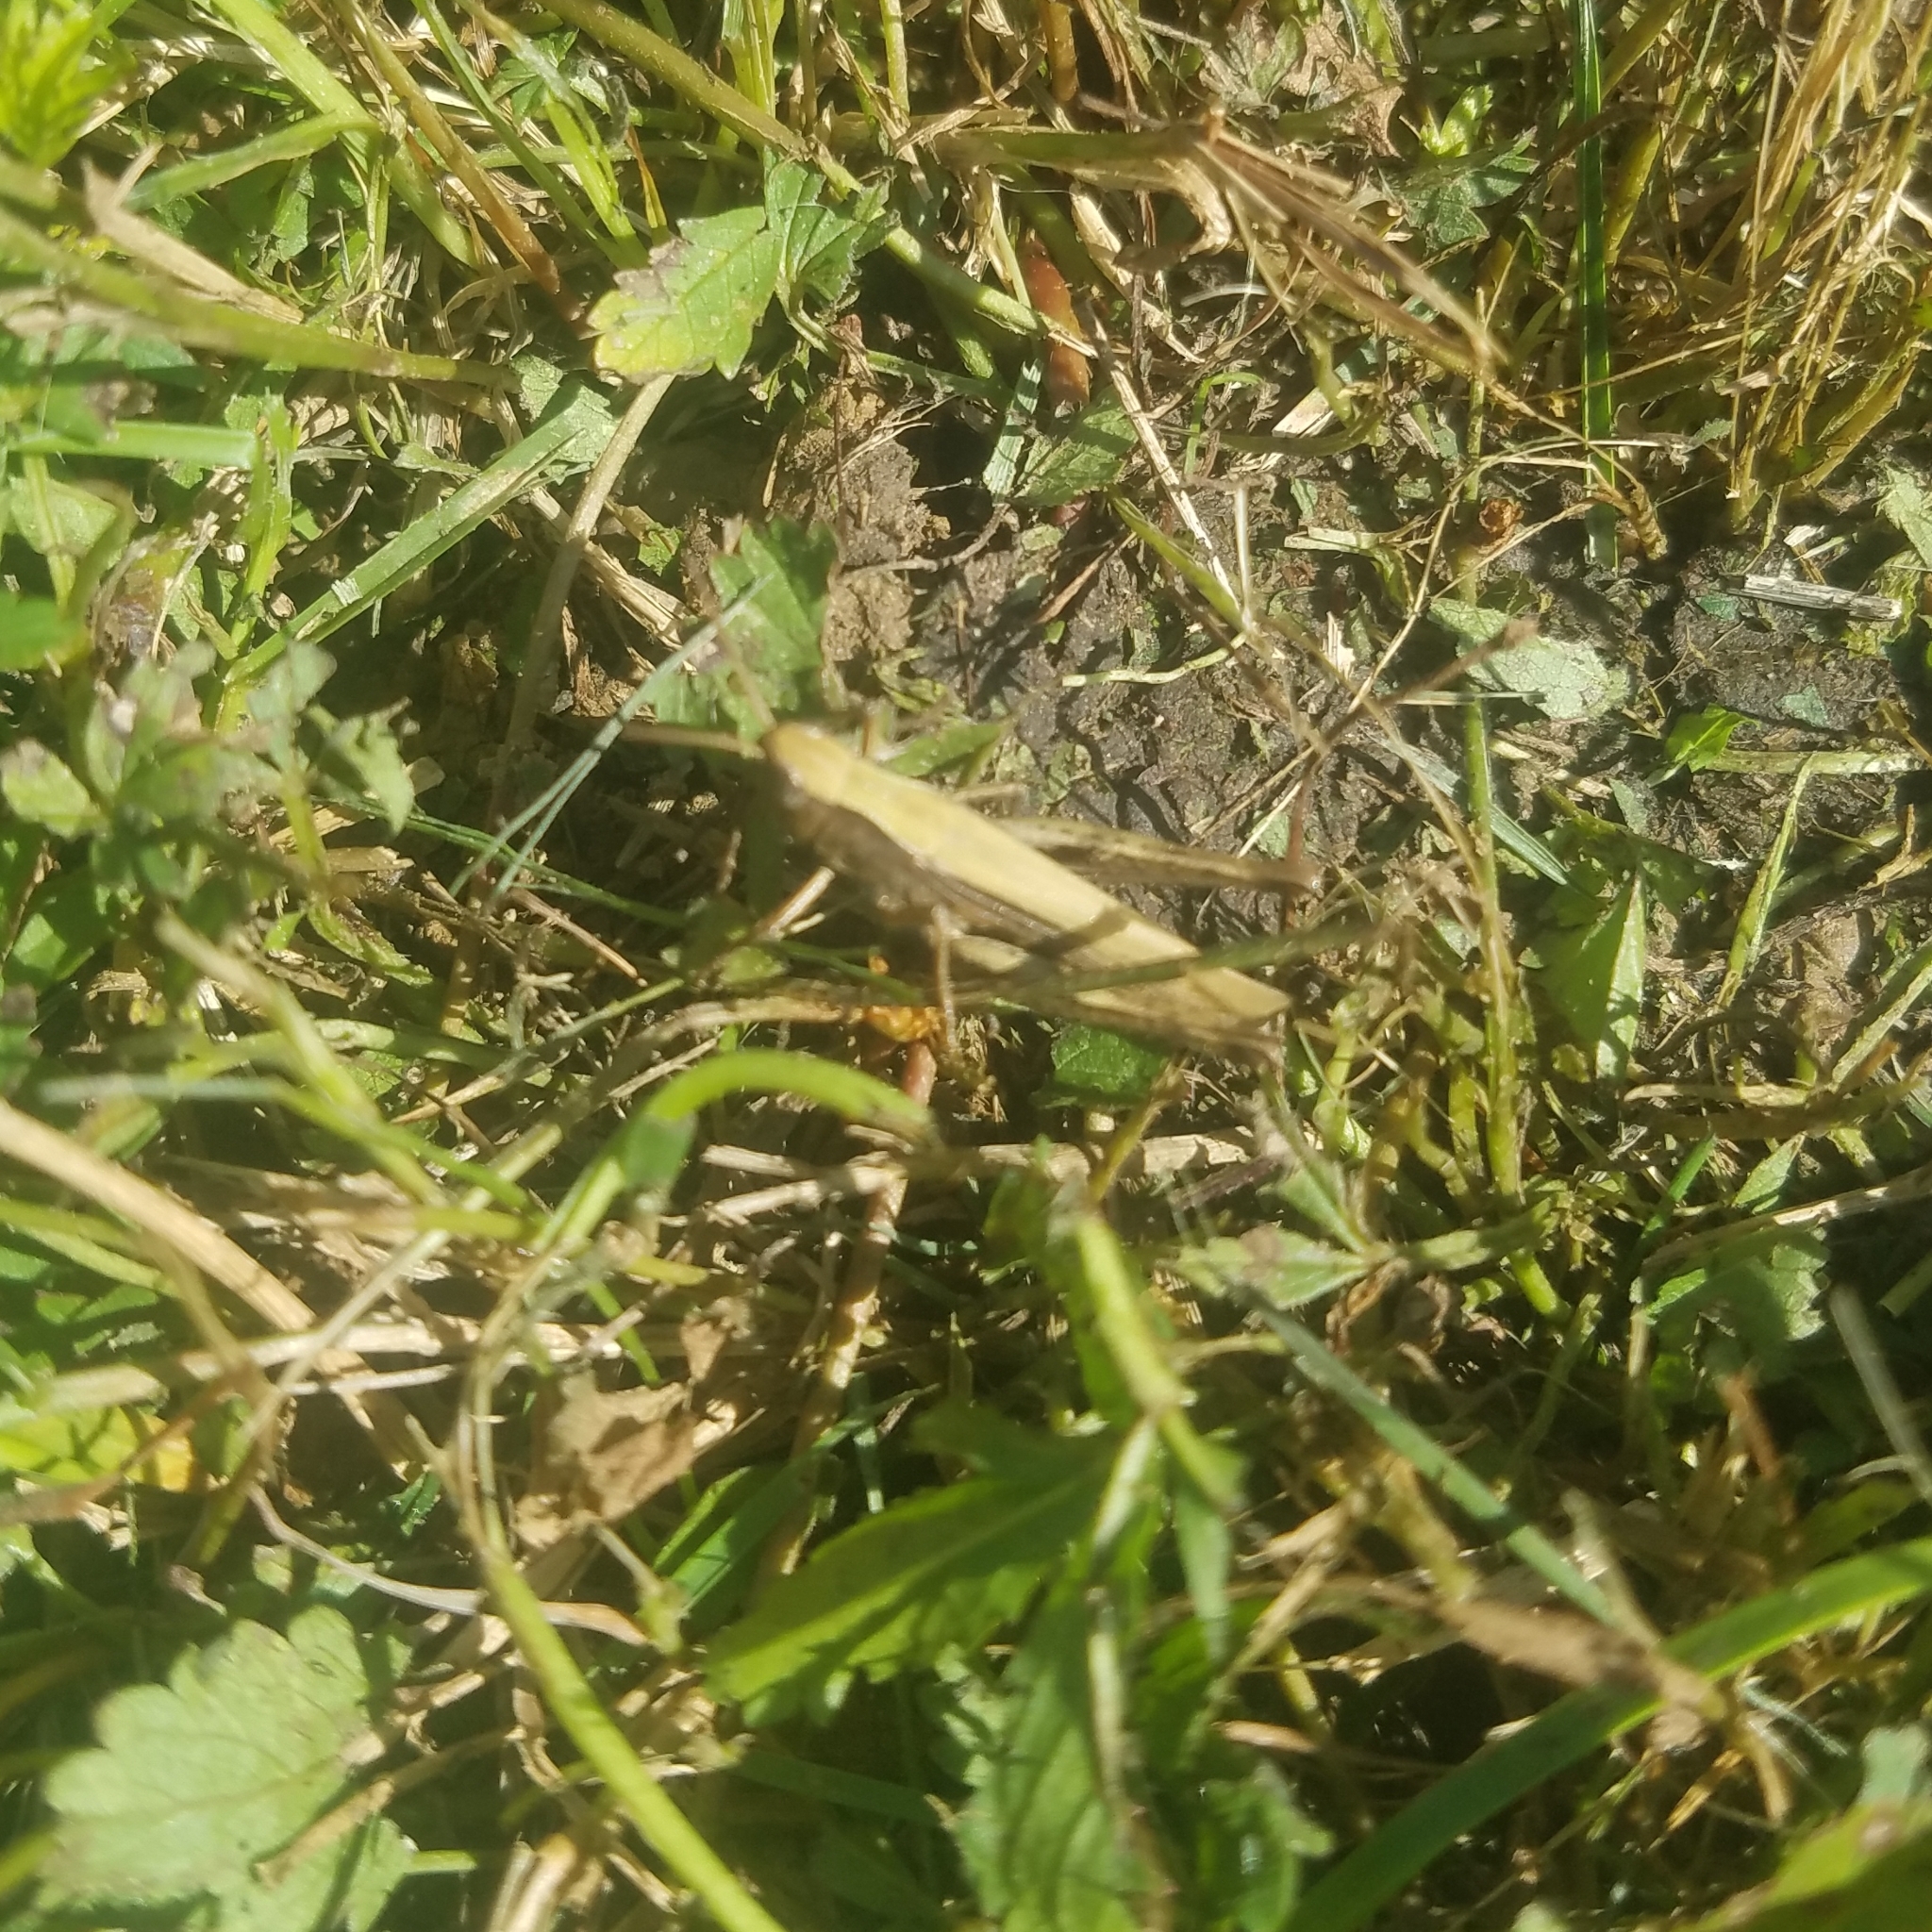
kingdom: Animalia
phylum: Arthropoda
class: Insecta
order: Orthoptera
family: Acrididae
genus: Chorthippus
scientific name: Chorthippus dorsatus
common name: Steppe grasshopper
